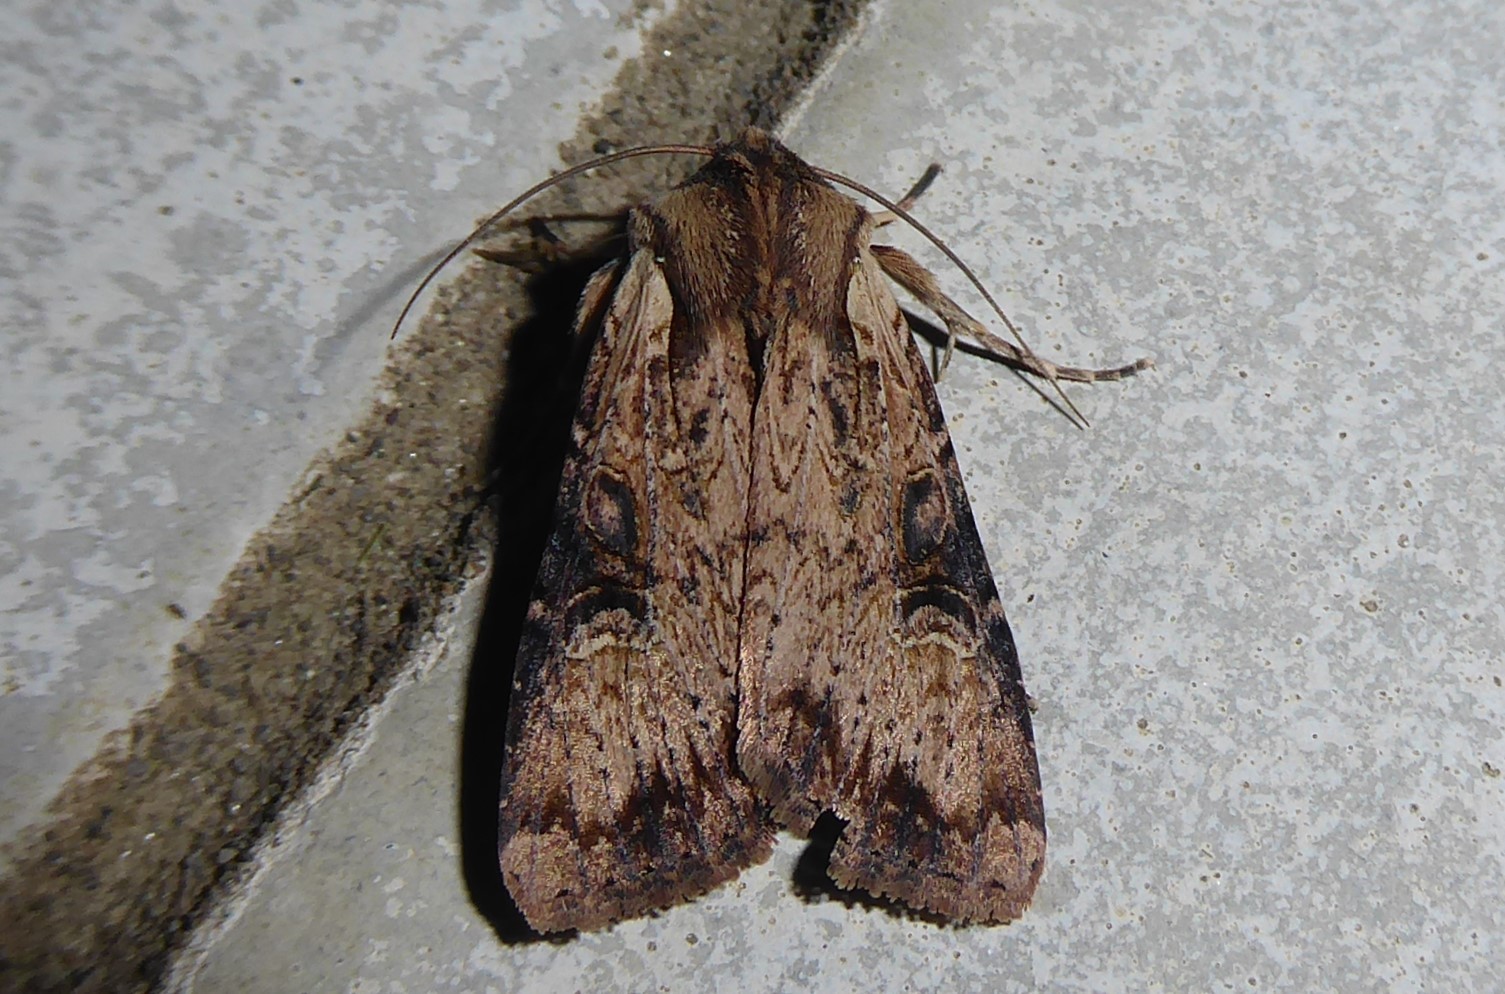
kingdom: Animalia
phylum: Arthropoda
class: Insecta
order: Lepidoptera
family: Noctuidae
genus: Ichneutica
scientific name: Ichneutica omoplaca
